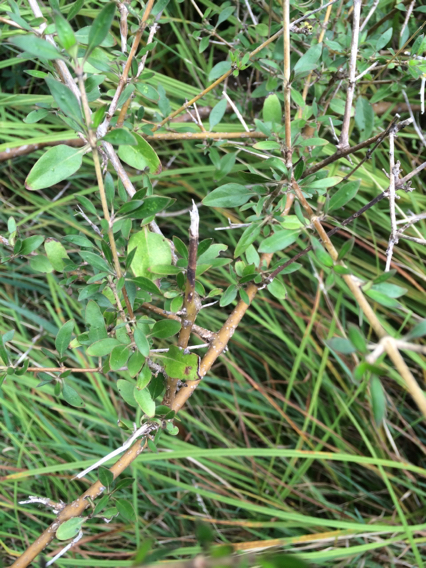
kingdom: Plantae
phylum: Tracheophyta
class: Magnoliopsida
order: Gentianales
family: Rubiaceae
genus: Coprosma
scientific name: Coprosma cunninghamii
